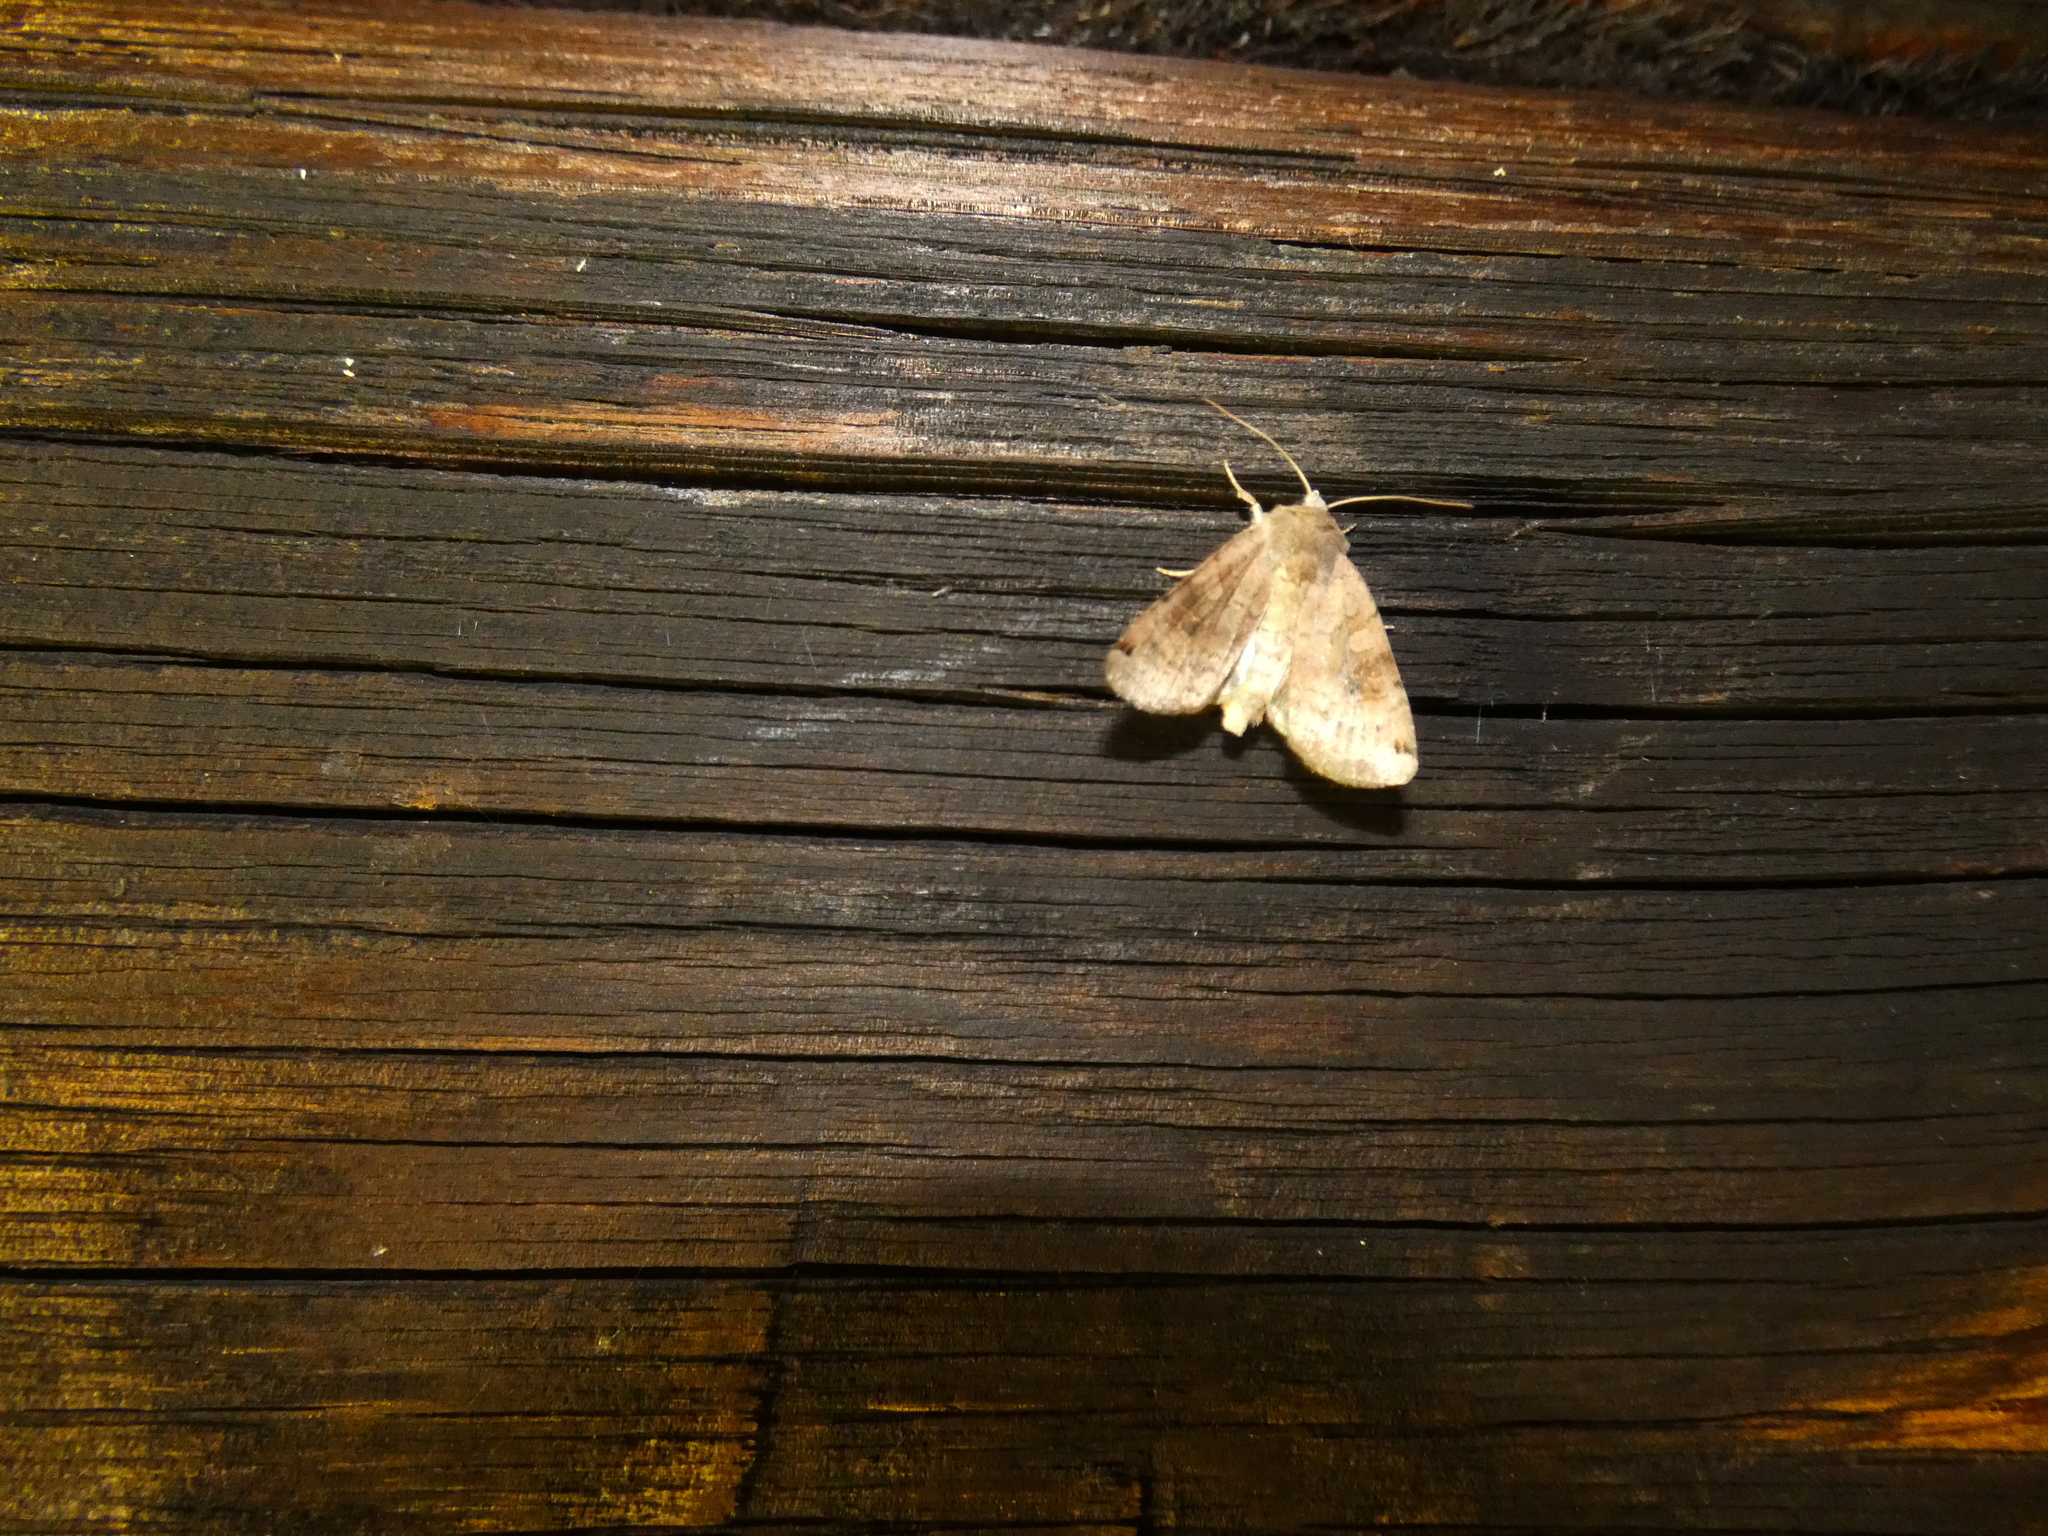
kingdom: Animalia
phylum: Arthropoda
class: Insecta
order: Lepidoptera
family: Noctuidae
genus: Xestia
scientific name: Xestia baja
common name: Dotted clay
